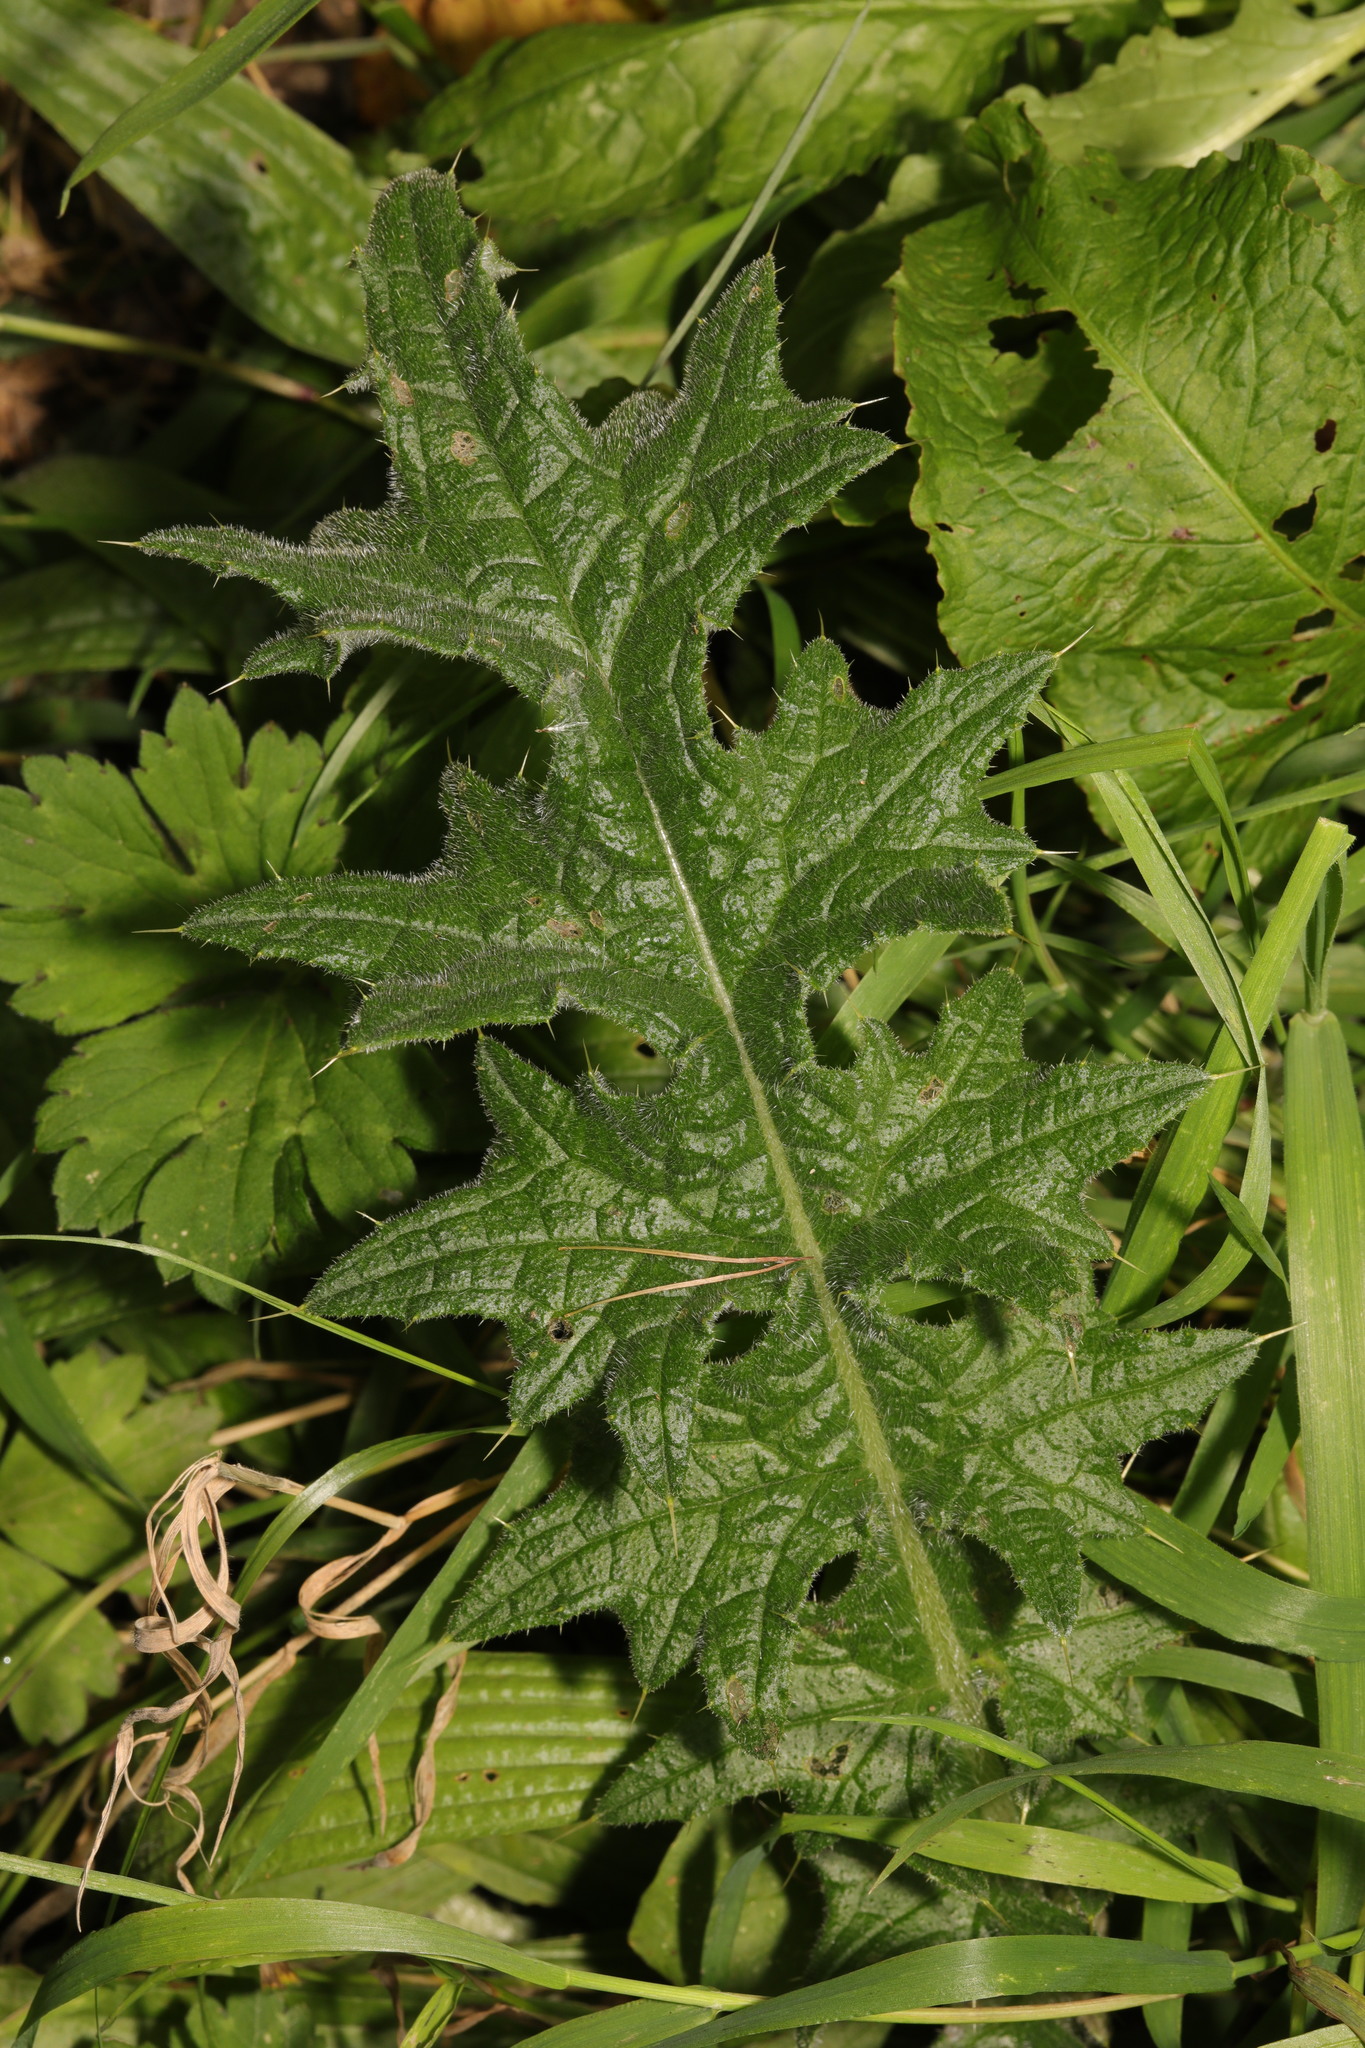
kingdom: Plantae
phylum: Tracheophyta
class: Magnoliopsida
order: Asterales
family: Asteraceae
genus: Cirsium
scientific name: Cirsium vulgare
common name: Bull thistle
